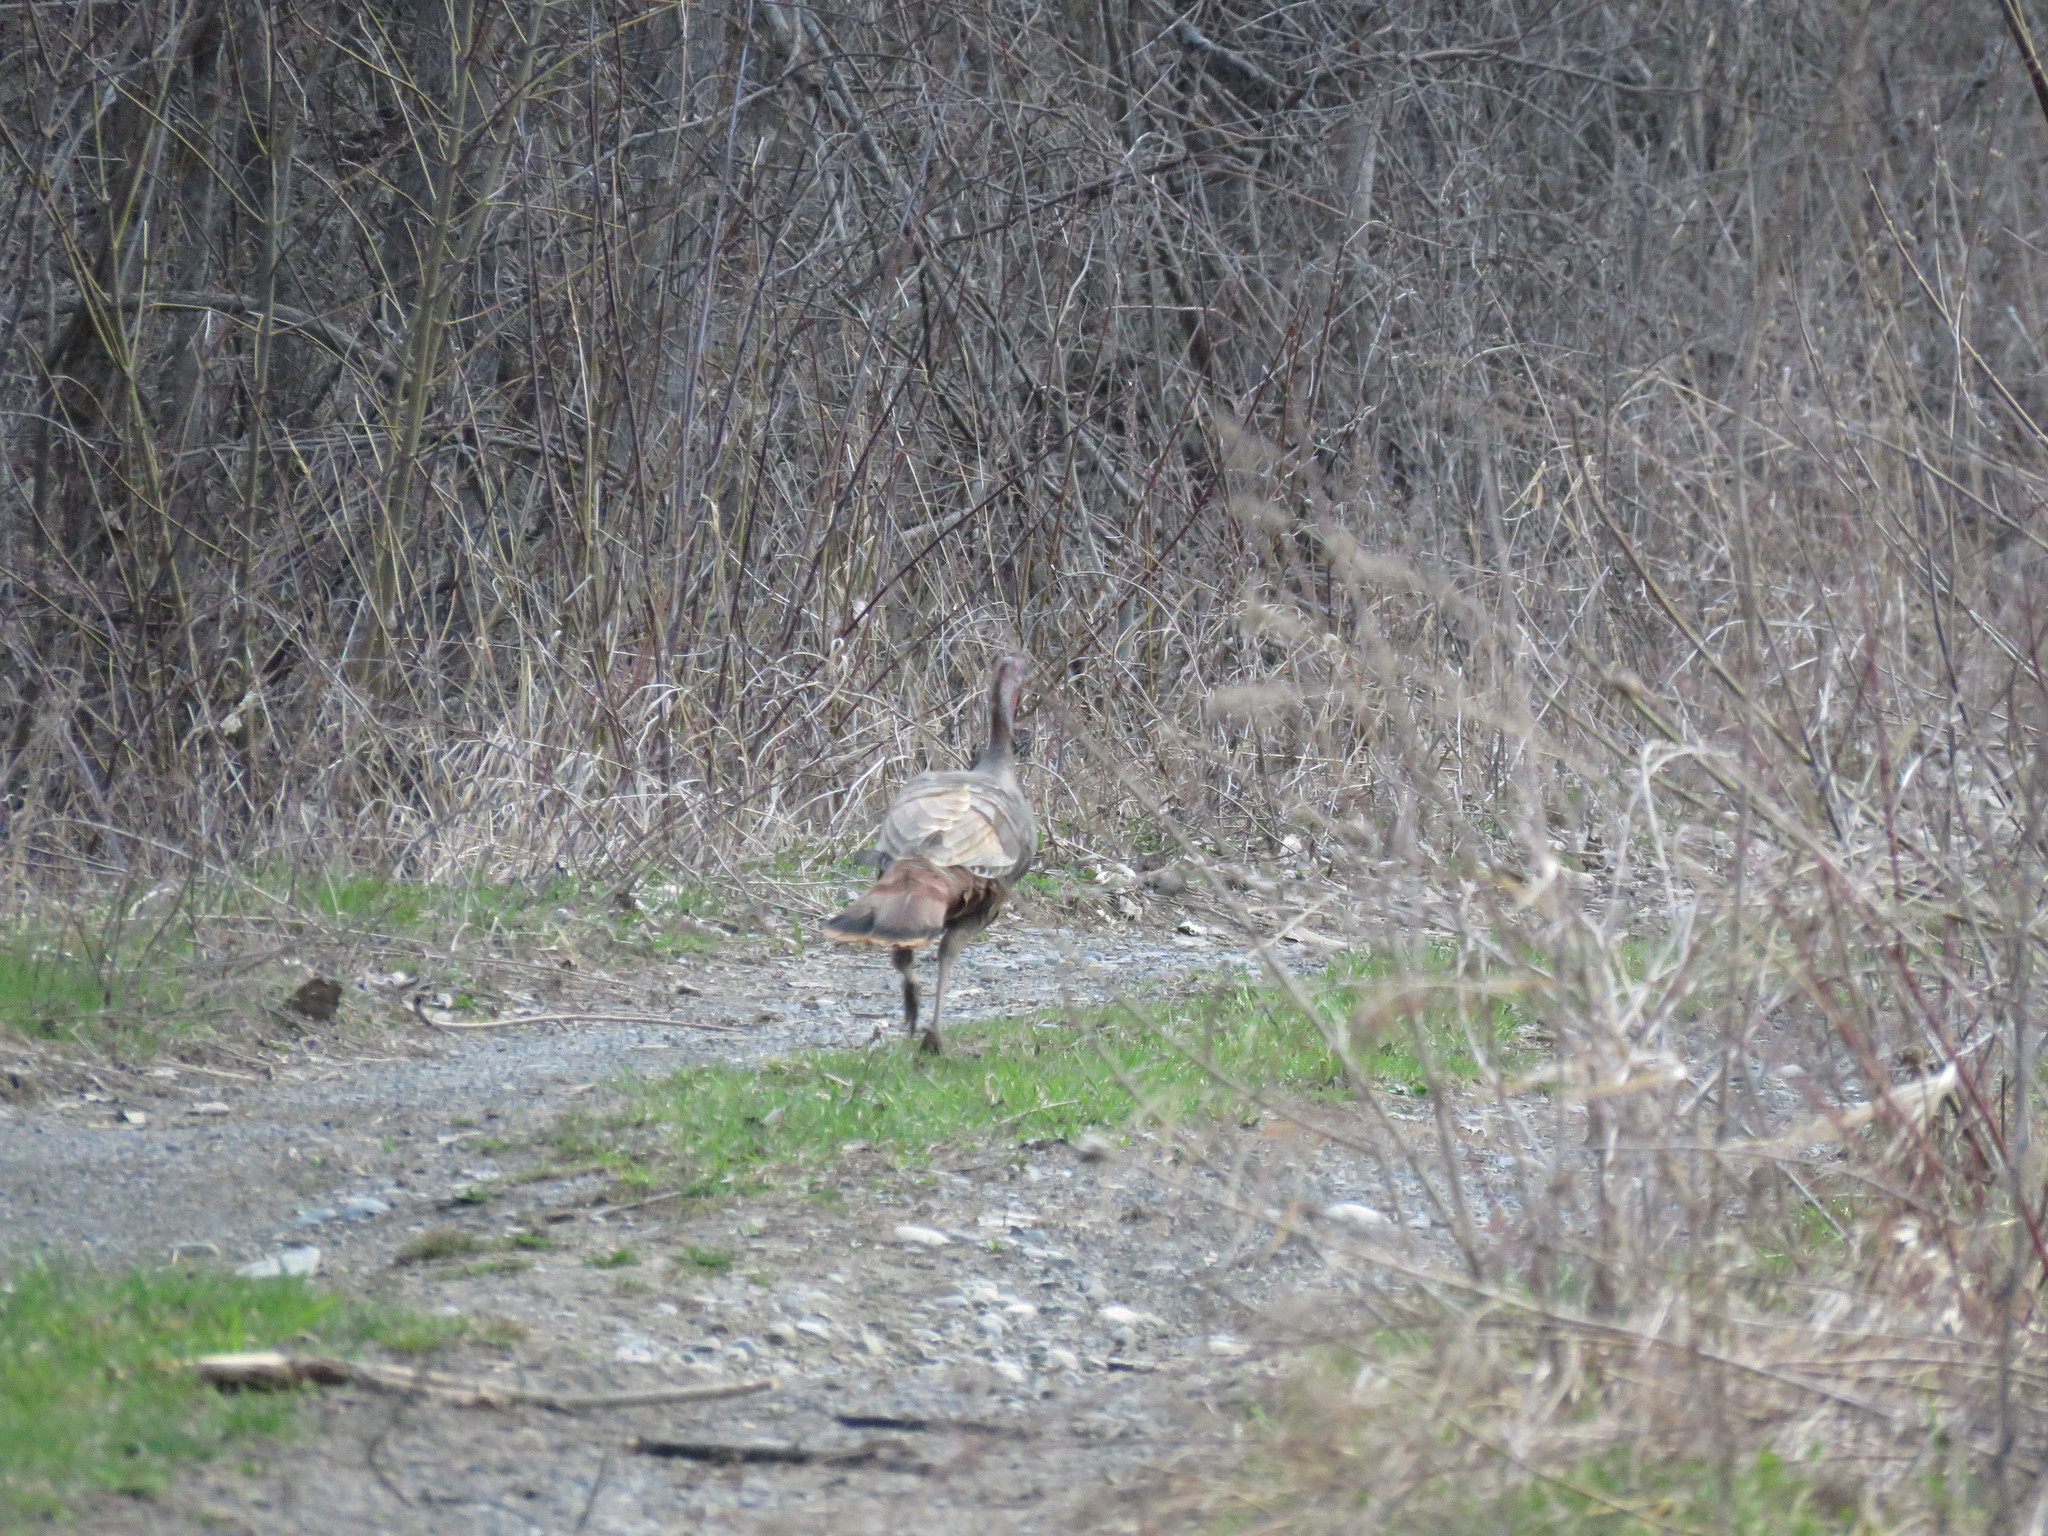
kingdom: Animalia
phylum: Chordata
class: Aves
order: Galliformes
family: Phasianidae
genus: Meleagris
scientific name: Meleagris gallopavo
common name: Wild turkey
